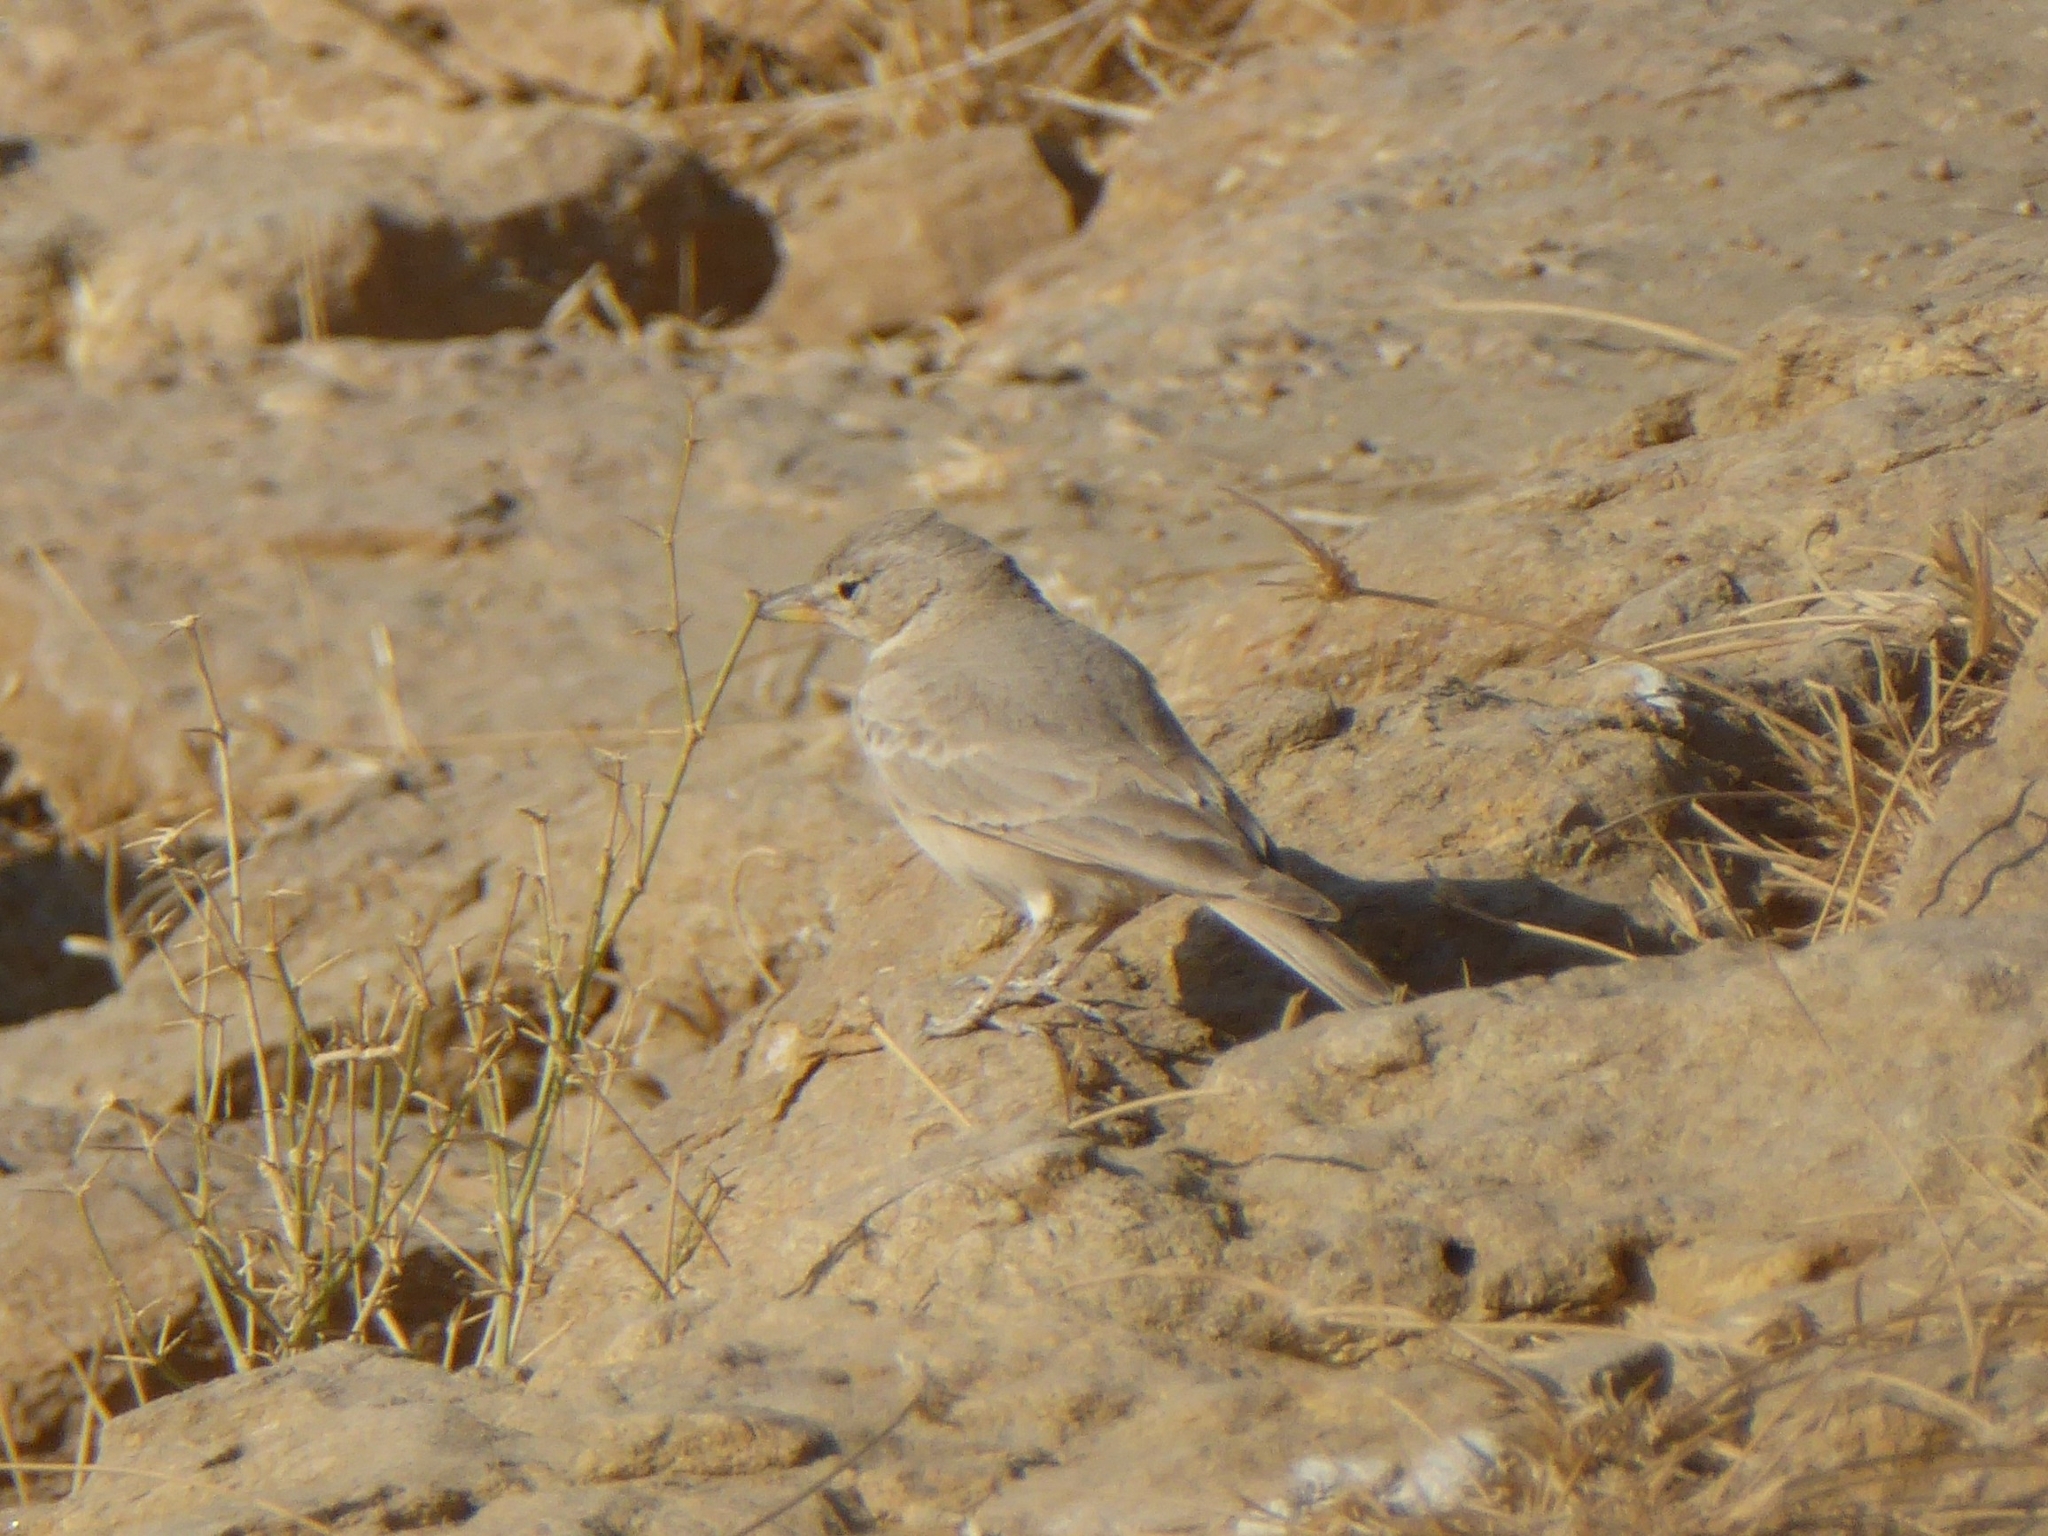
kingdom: Animalia
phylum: Chordata
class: Aves
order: Passeriformes
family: Alaudidae
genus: Ammomanes
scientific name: Ammomanes deserti
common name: Desert lark
